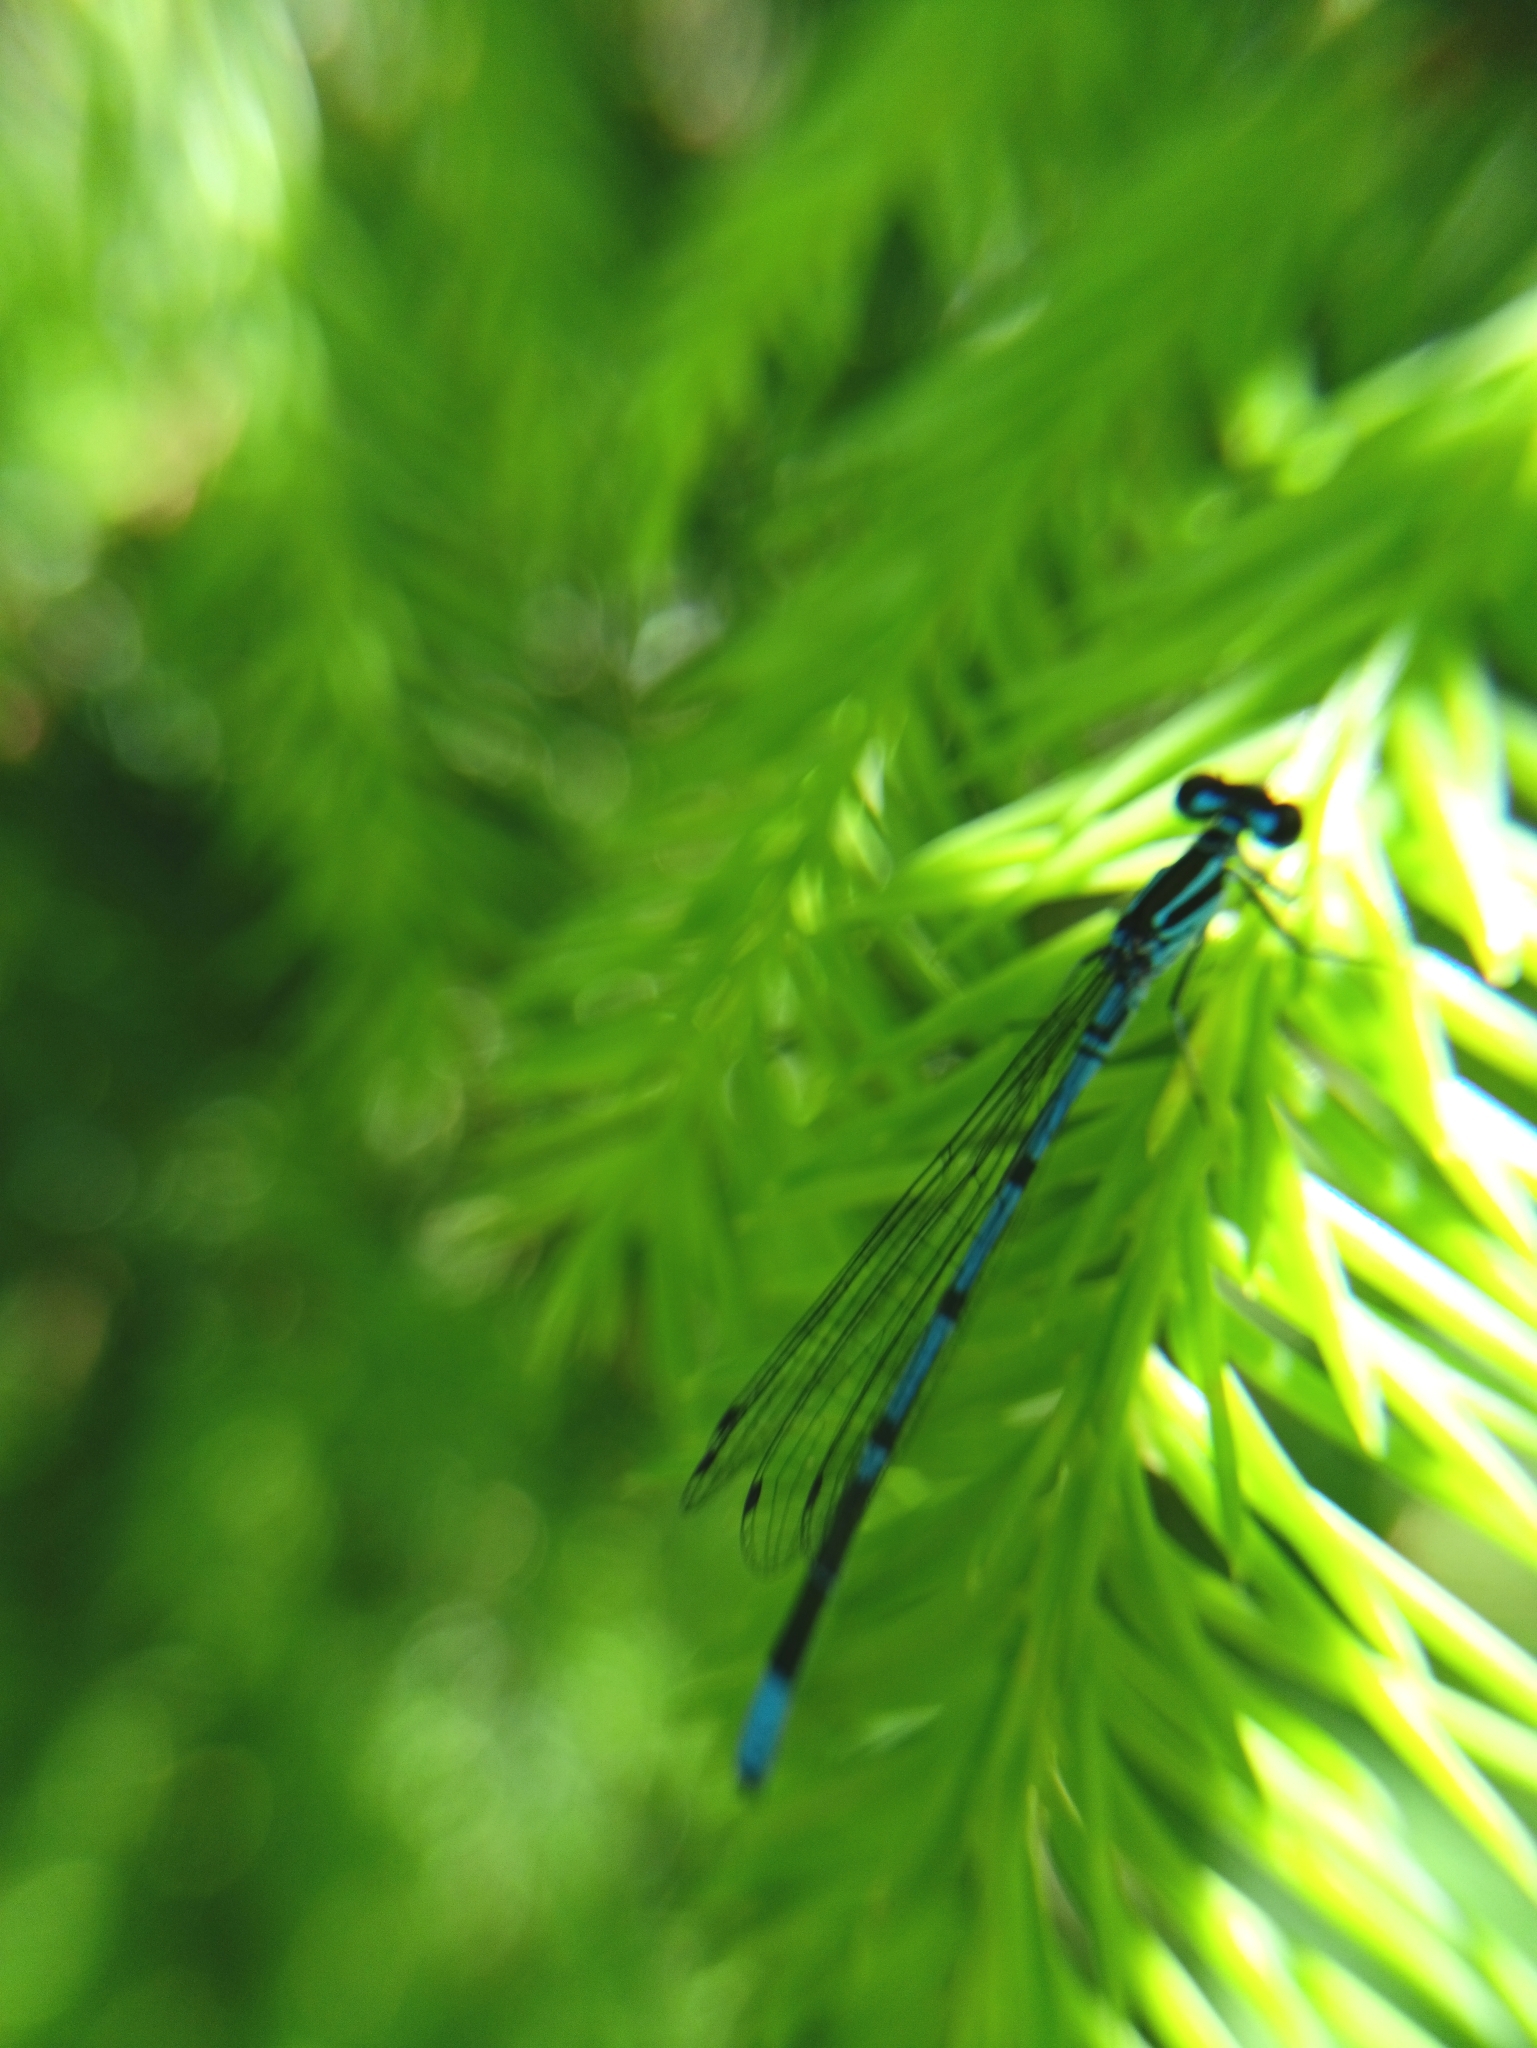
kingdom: Animalia
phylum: Arthropoda
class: Insecta
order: Odonata
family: Coenagrionidae
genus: Coenagrion
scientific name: Coenagrion puella
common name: Azure damselfly
